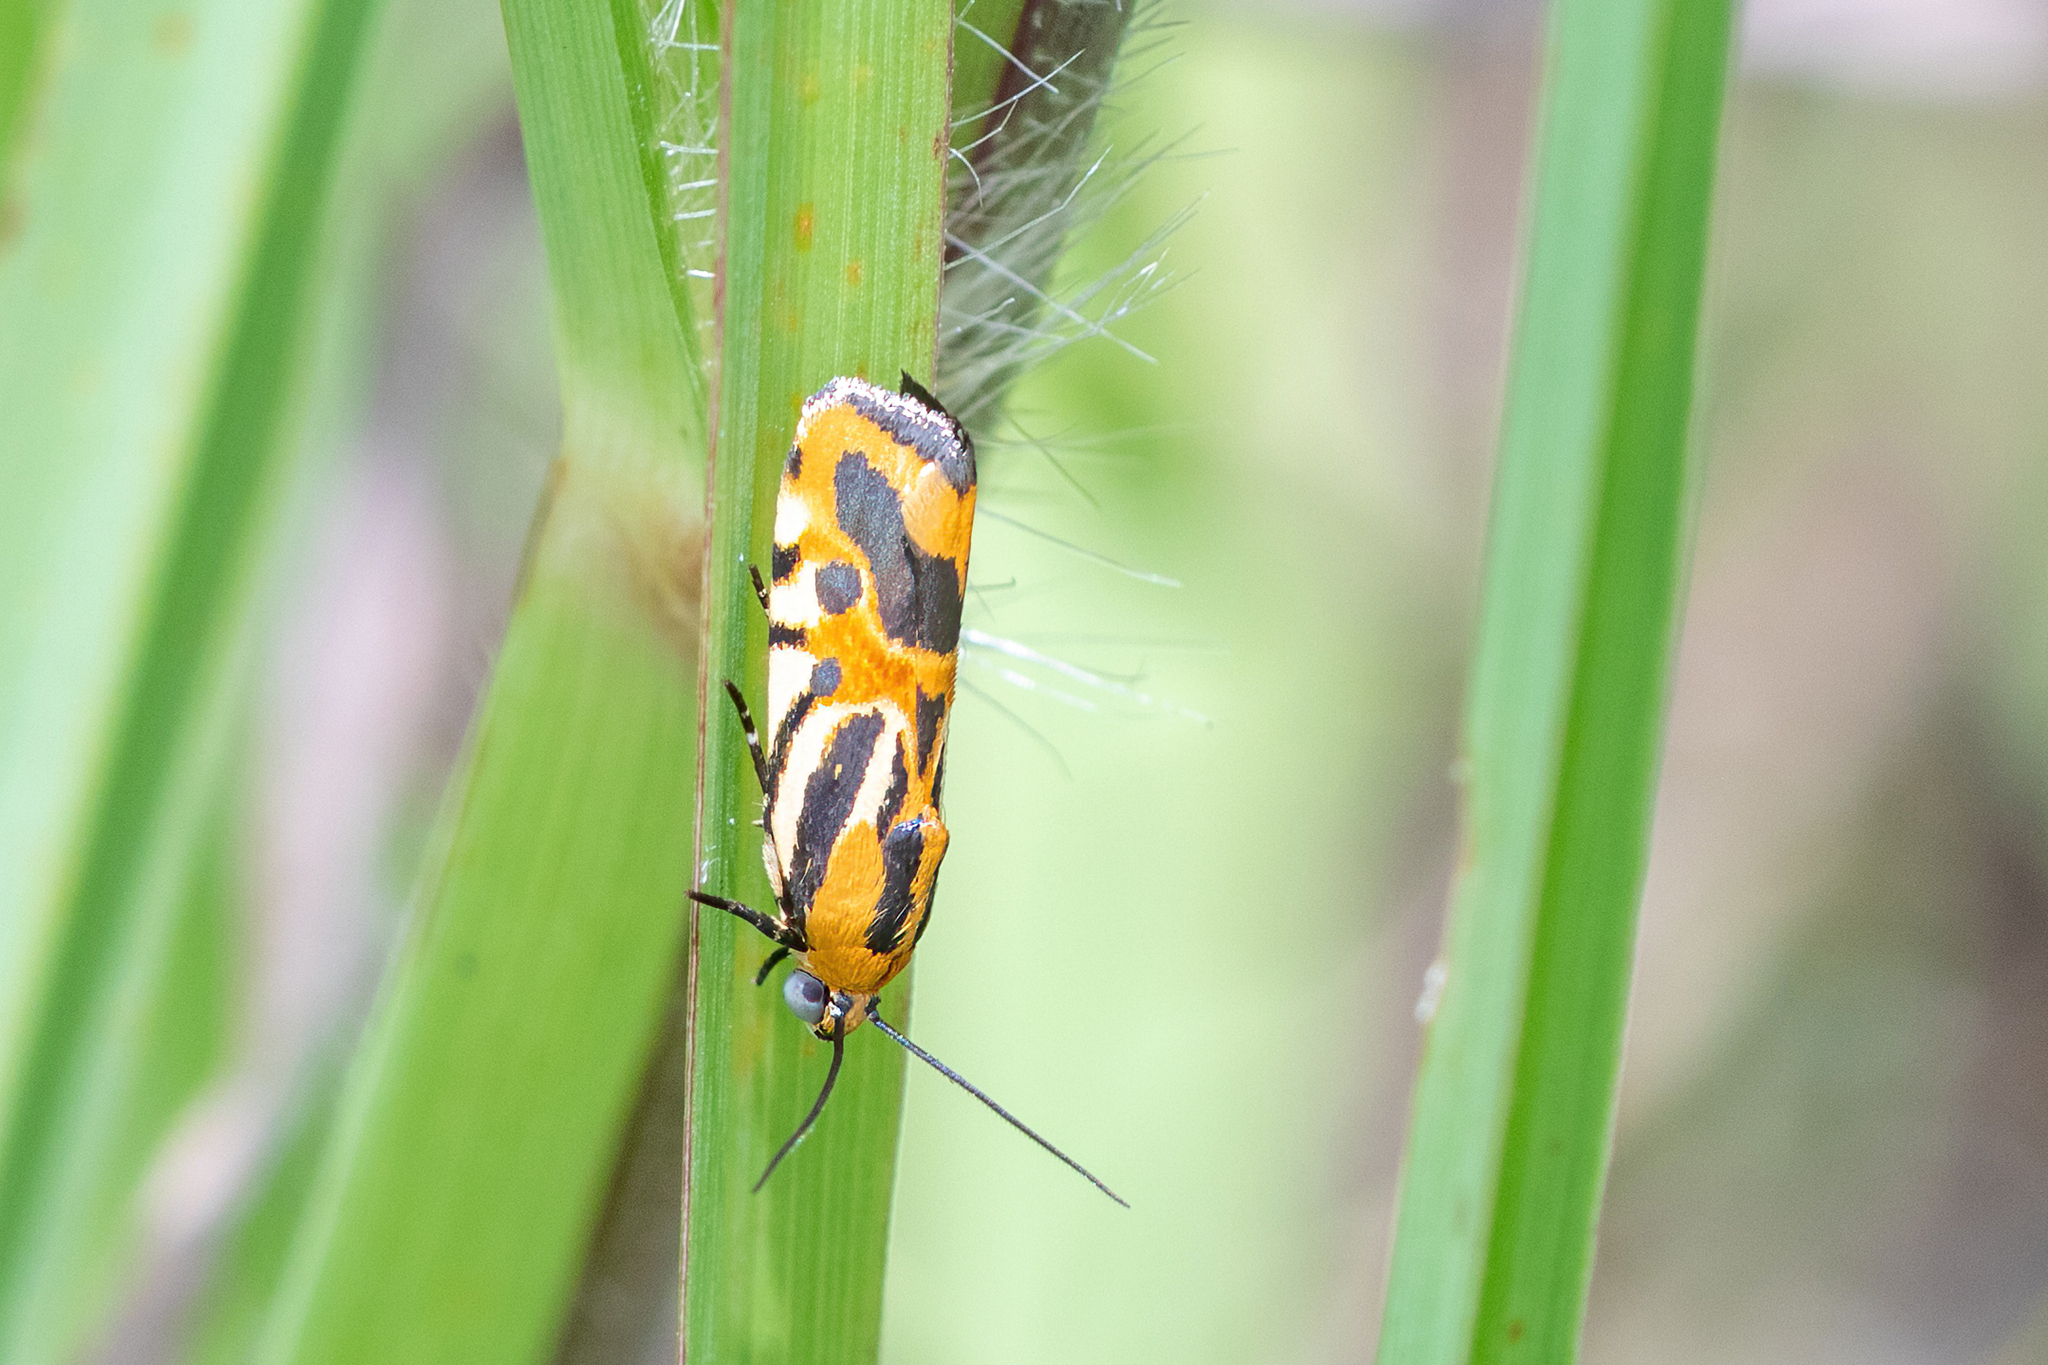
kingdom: Animalia
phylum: Arthropoda
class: Insecta
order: Lepidoptera
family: Noctuidae
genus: Acontia
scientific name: Acontia onagrus
